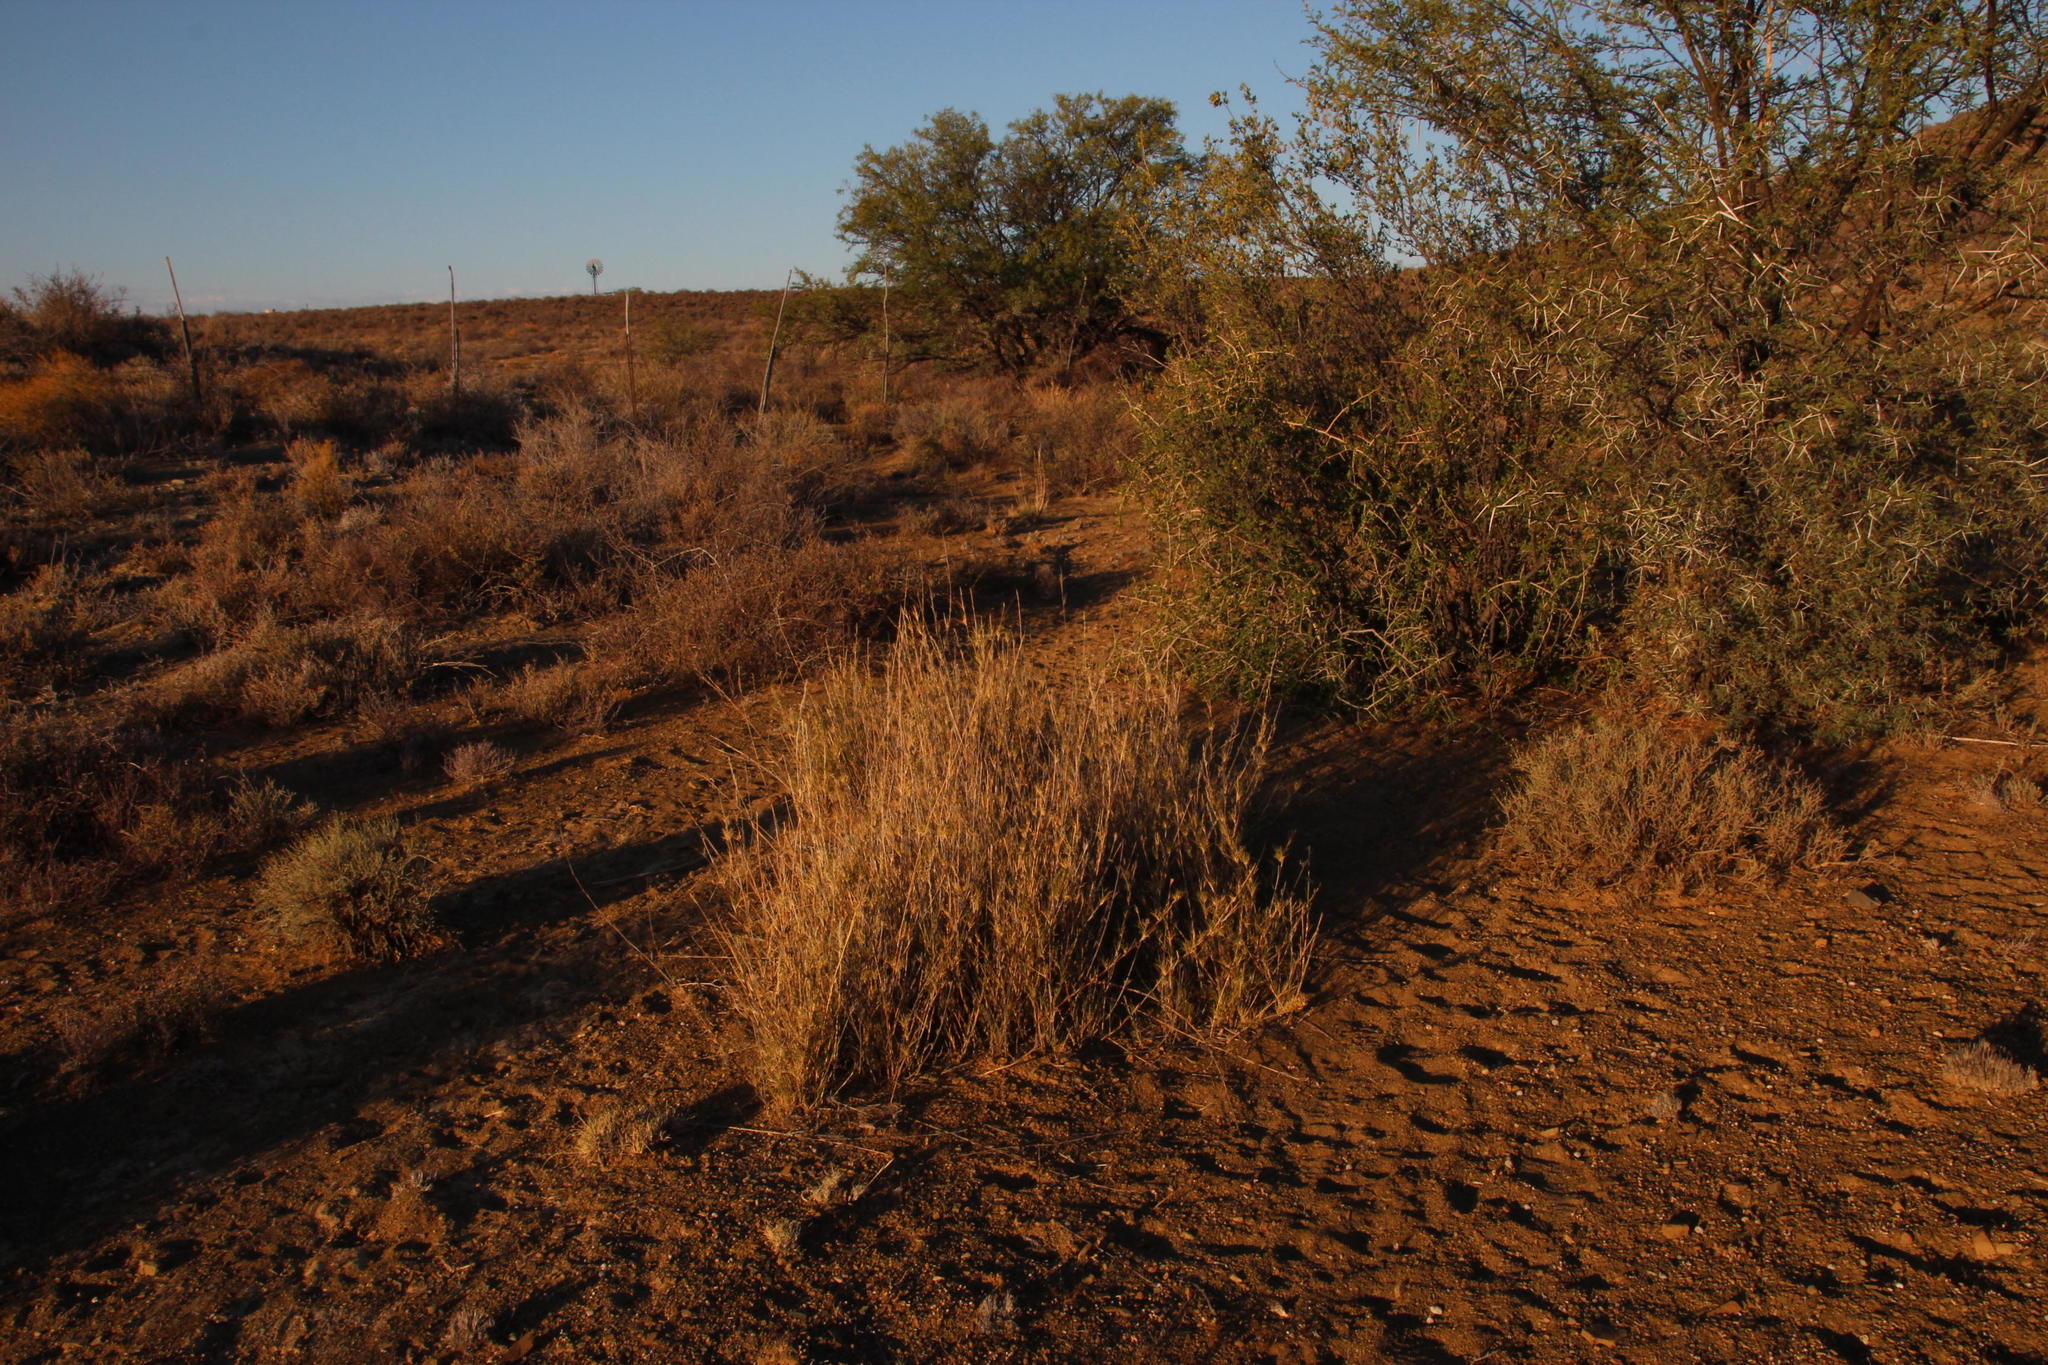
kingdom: Plantae
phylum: Tracheophyta
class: Liliopsida
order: Poales
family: Poaceae
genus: Stipagrostis
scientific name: Stipagrostis namaquensis
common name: River bushman grass
